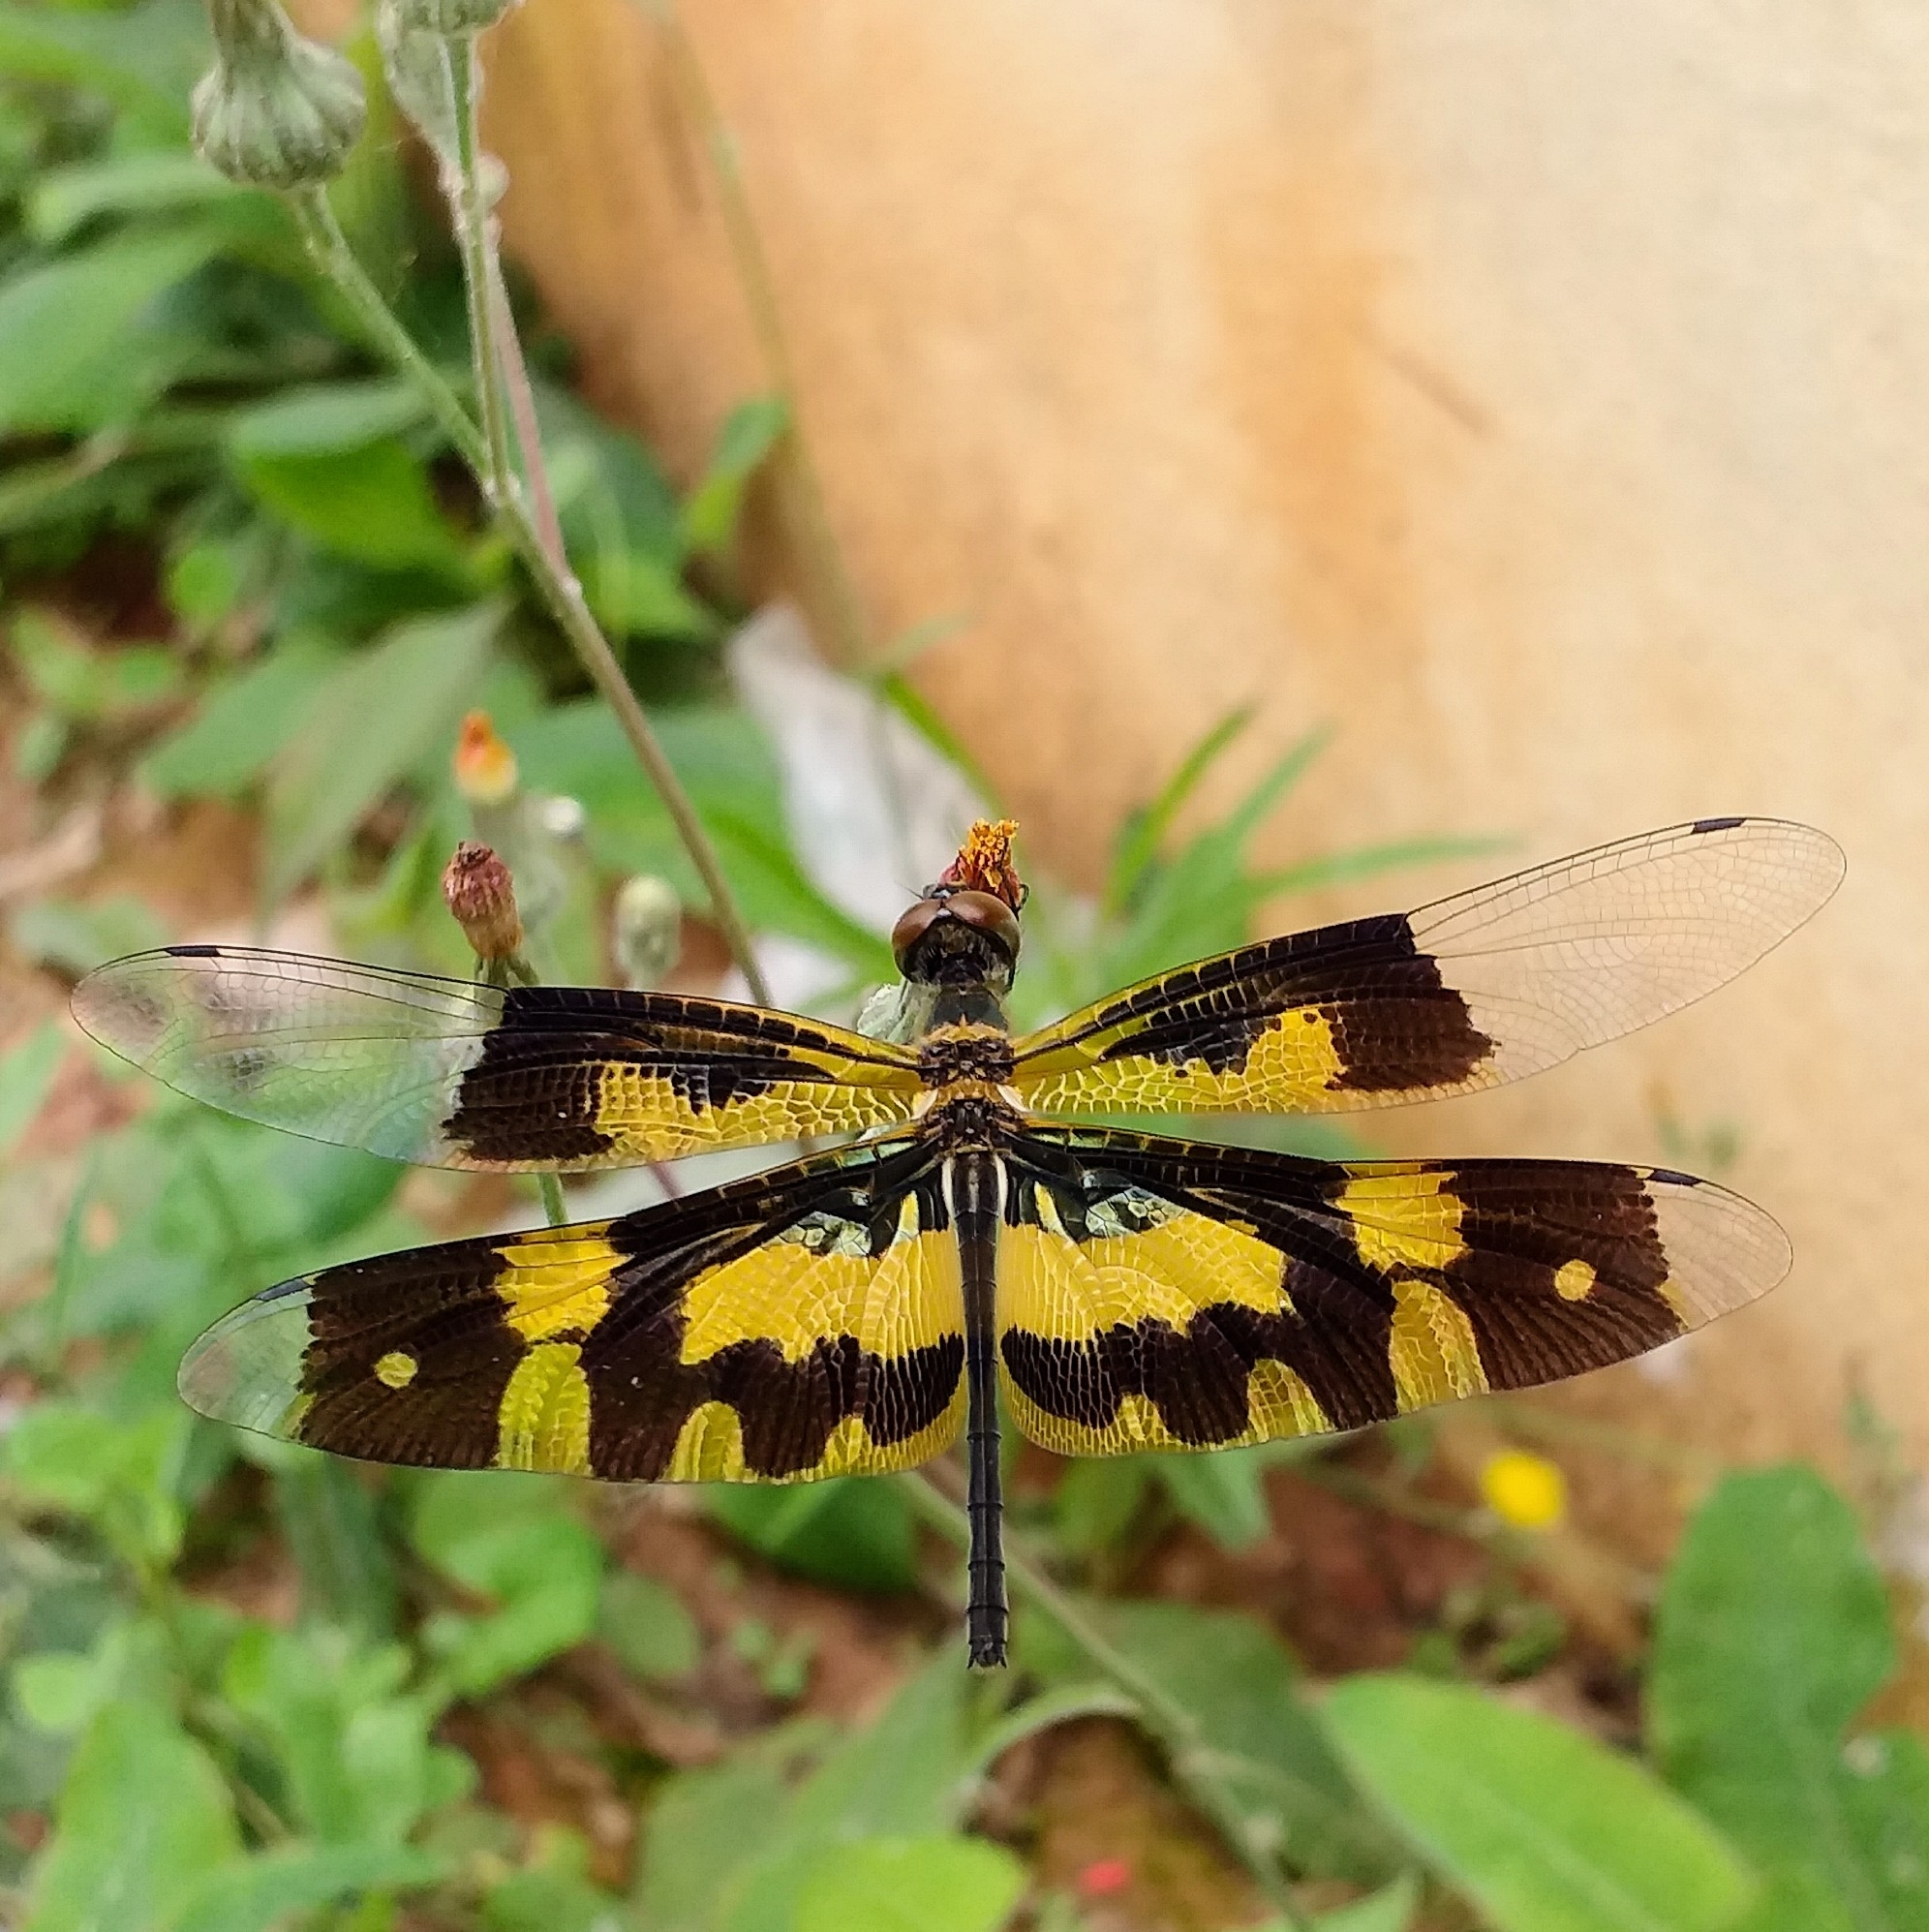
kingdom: Animalia
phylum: Arthropoda
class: Insecta
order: Odonata
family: Libellulidae
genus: Rhyothemis
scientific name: Rhyothemis variegata
